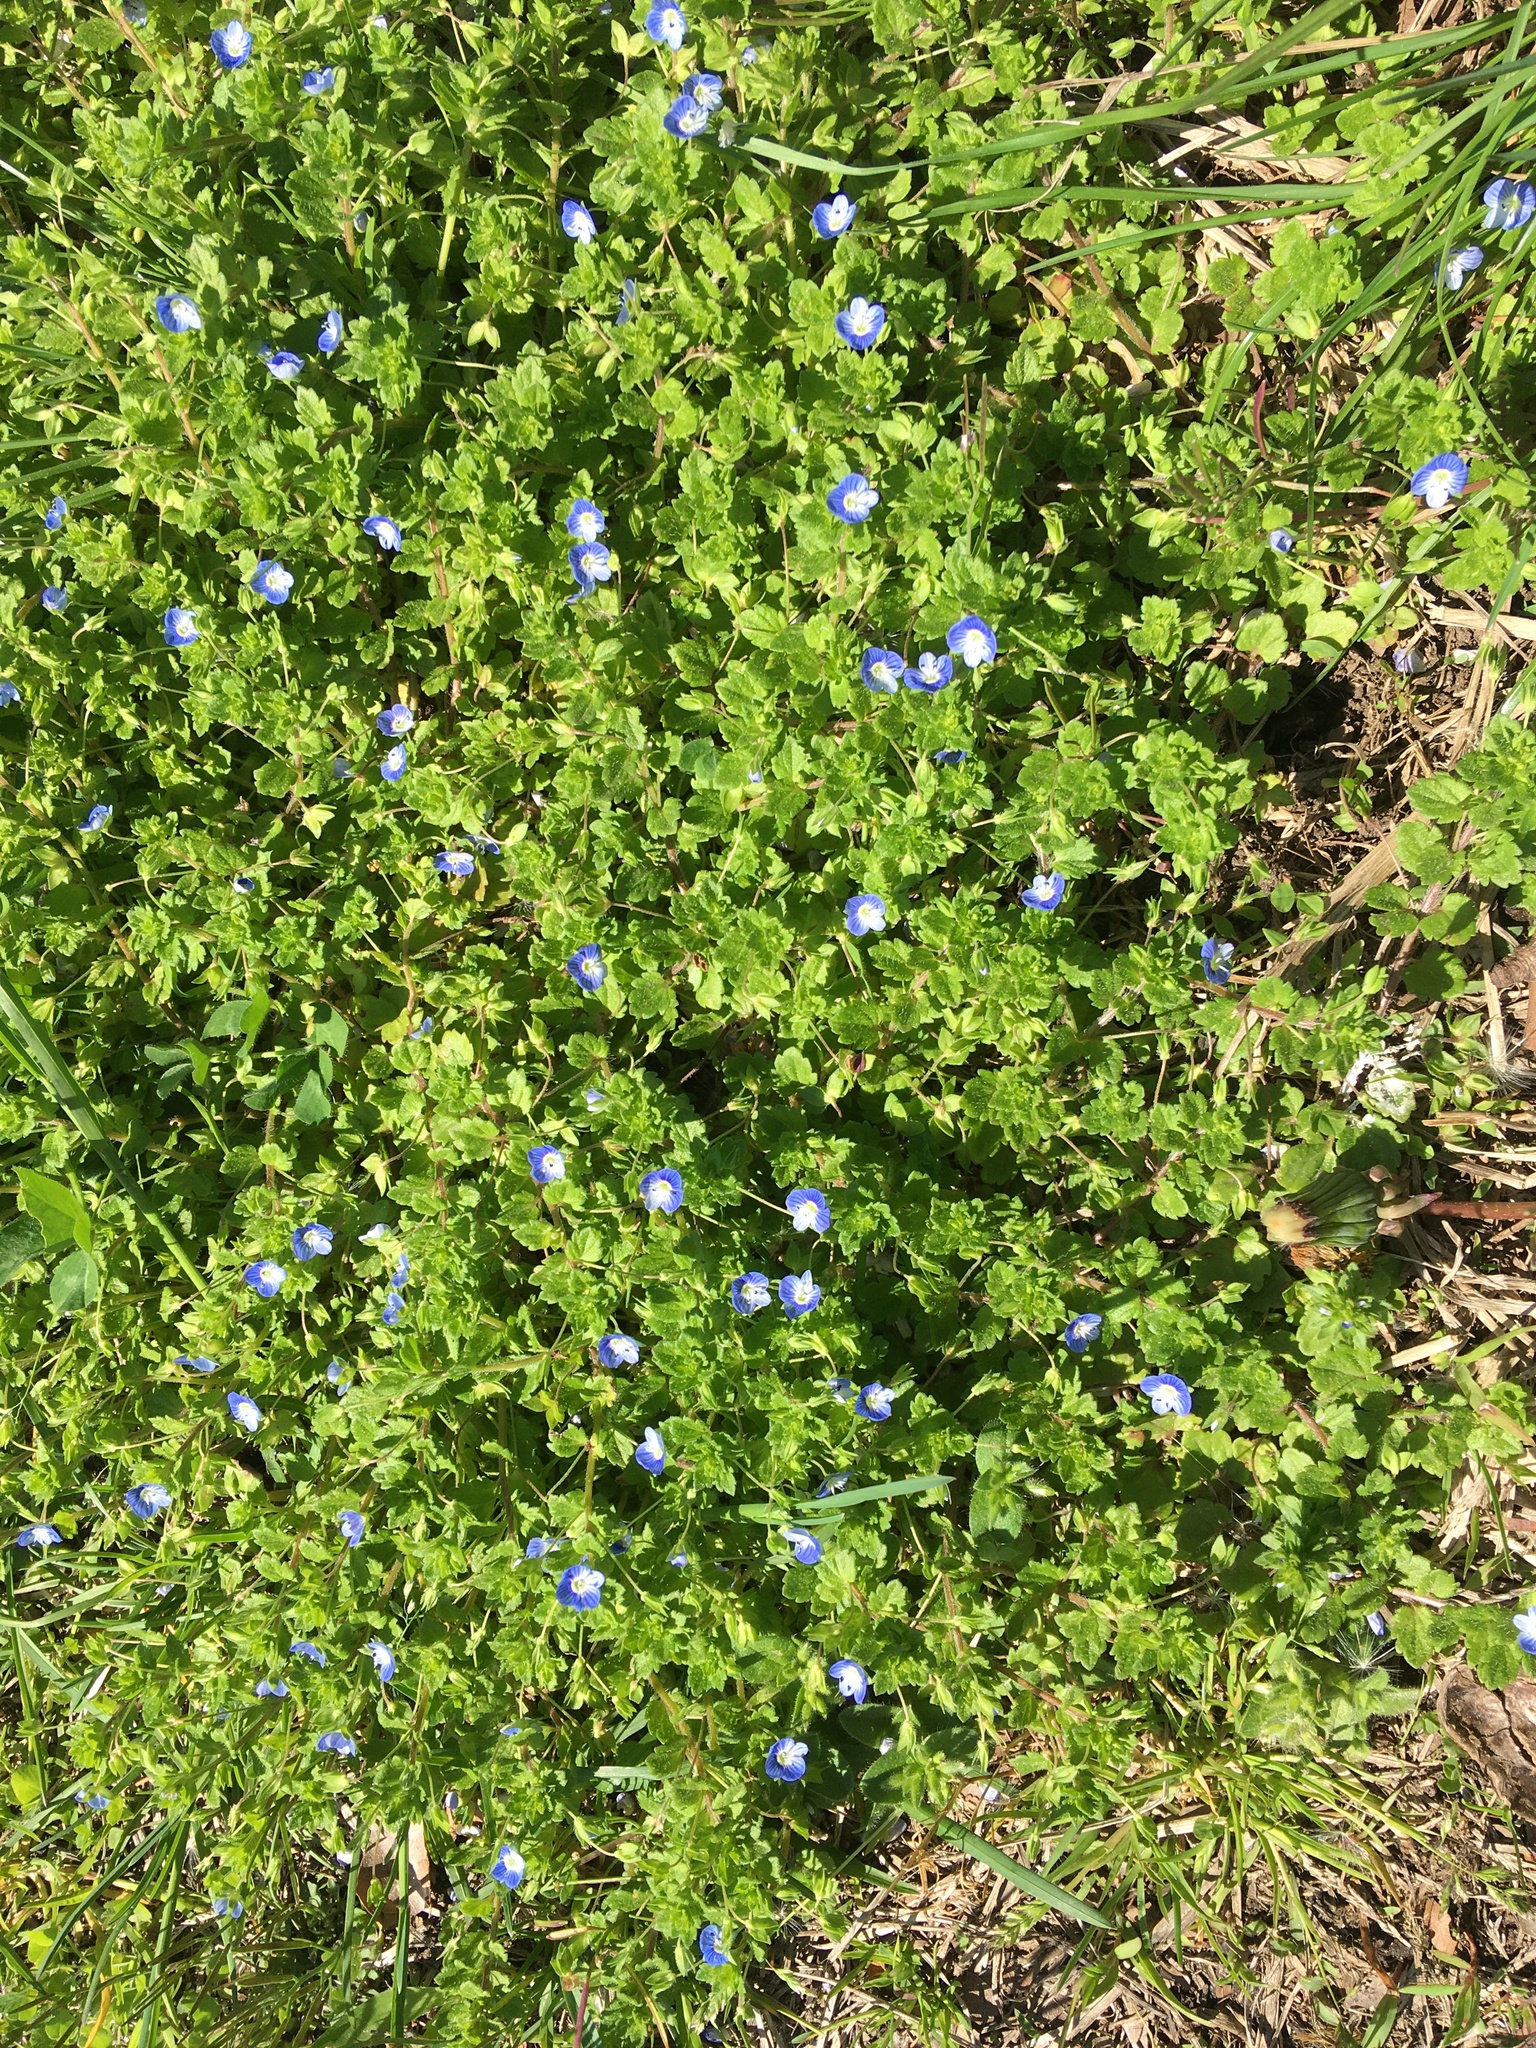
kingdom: Plantae
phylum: Tracheophyta
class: Magnoliopsida
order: Lamiales
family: Plantaginaceae
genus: Veronica
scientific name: Veronica persica
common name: Common field-speedwell
